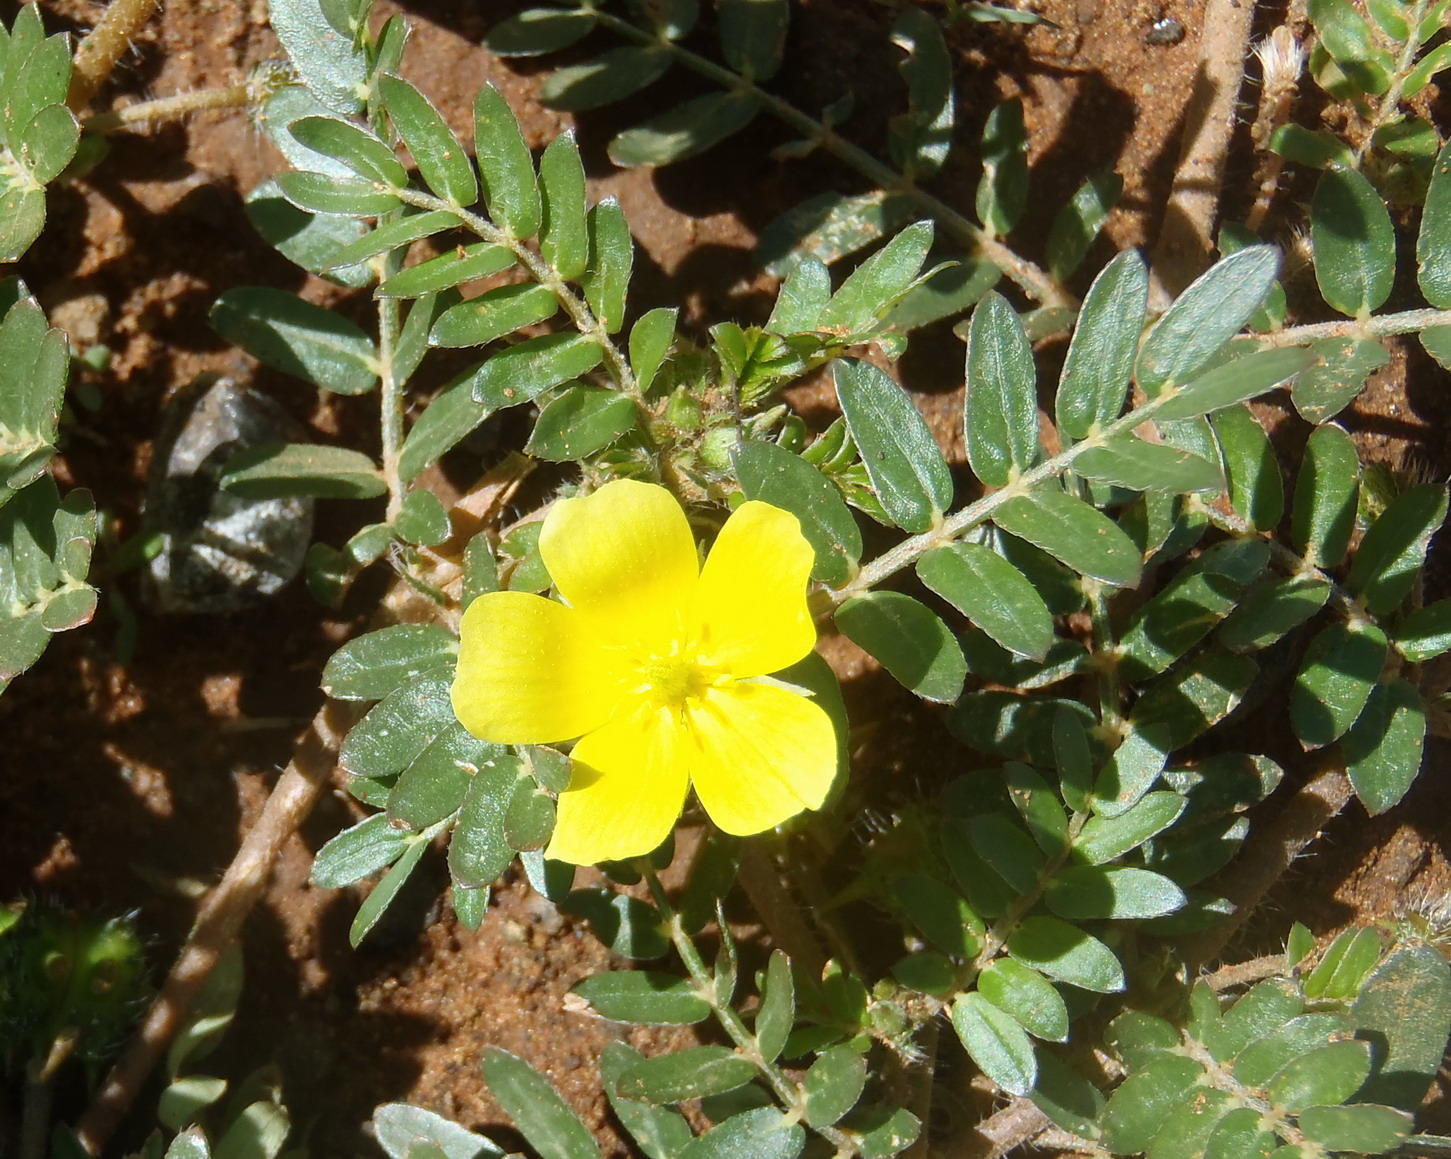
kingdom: Plantae
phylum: Tracheophyta
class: Magnoliopsida
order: Zygophyllales
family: Zygophyllaceae
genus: Tribulus
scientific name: Tribulus terrestris
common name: Puncturevine
